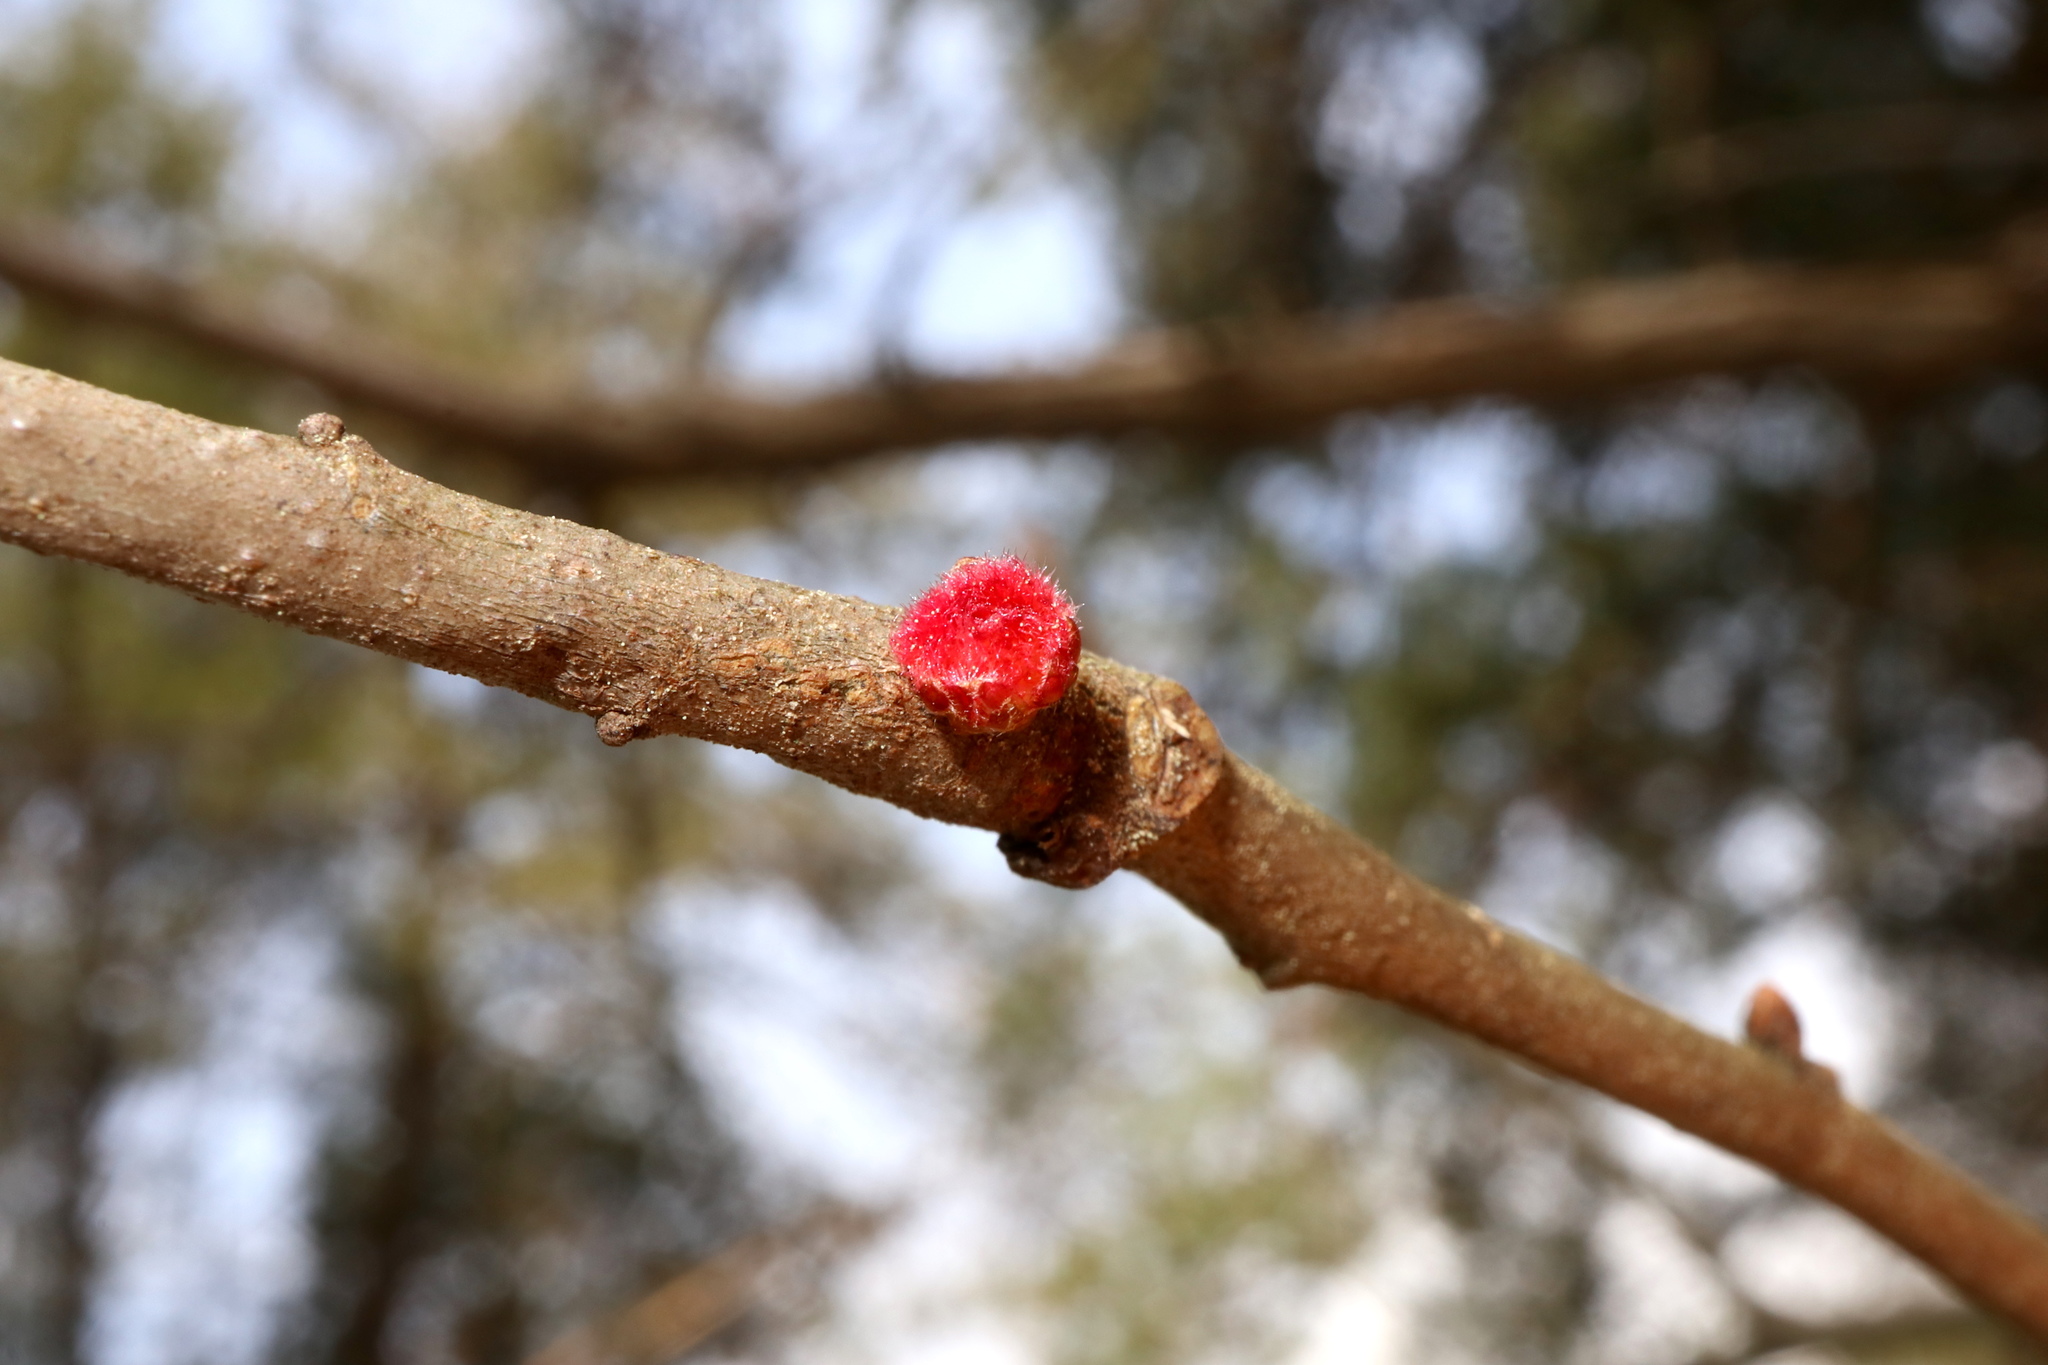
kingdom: Animalia
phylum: Arthropoda
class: Insecta
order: Hymenoptera
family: Cynipidae
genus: Dryocosmus
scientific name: Dryocosmus
